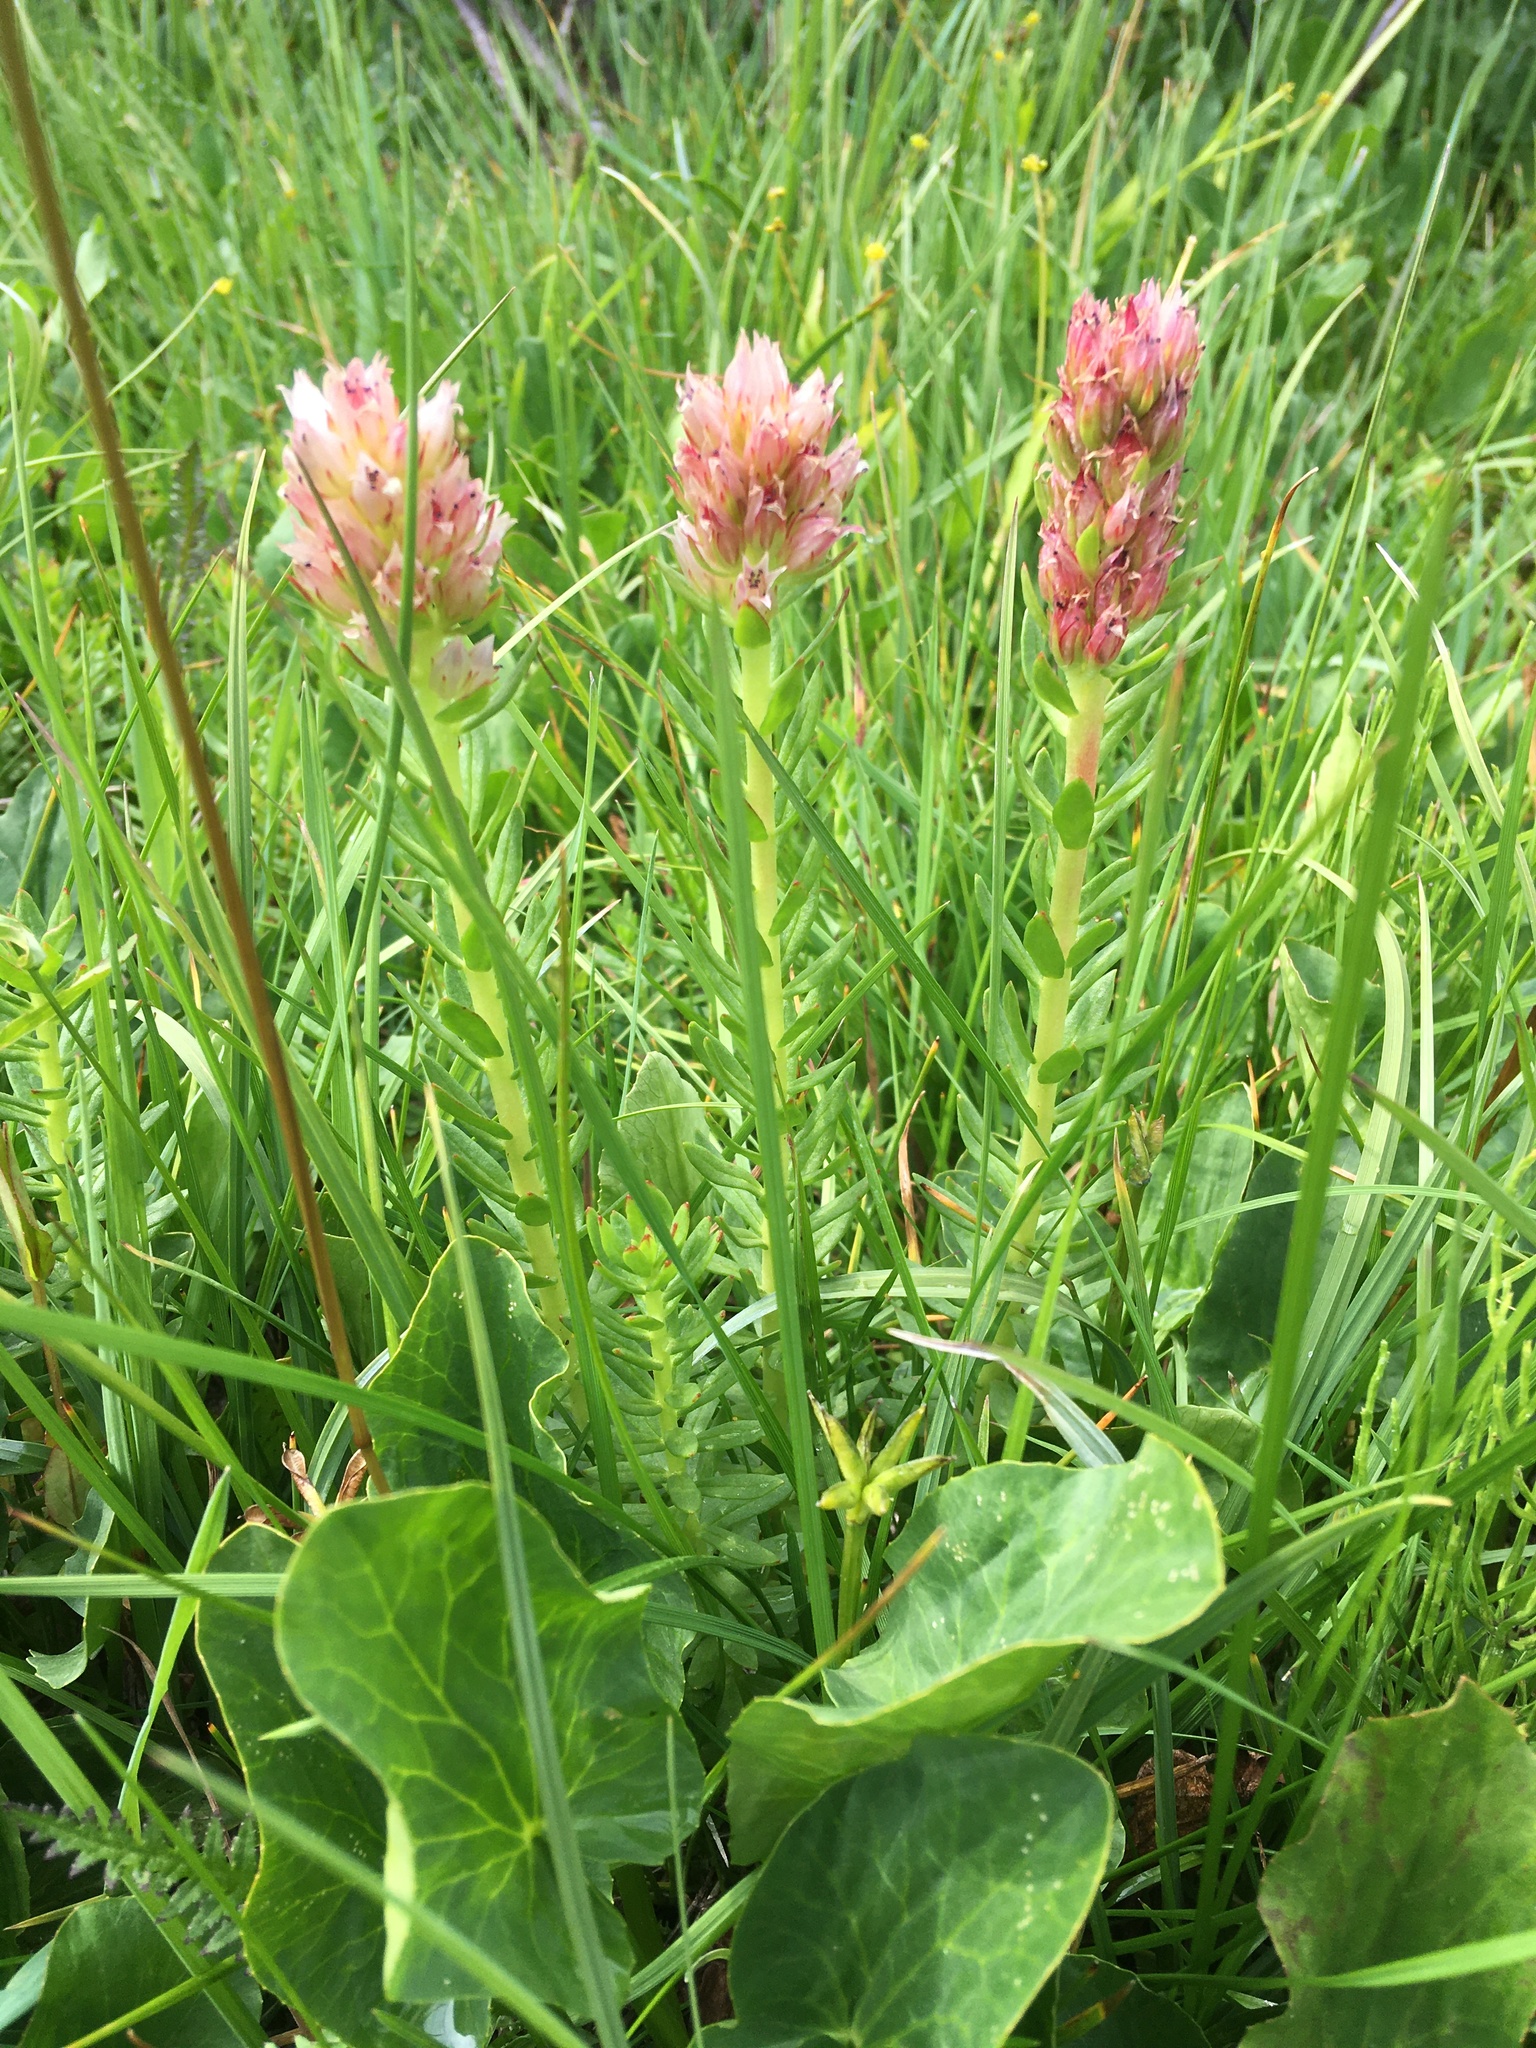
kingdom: Plantae
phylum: Tracheophyta
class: Magnoliopsida
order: Saxifragales
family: Crassulaceae
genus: Rhodiola
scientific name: Rhodiola rhodantha
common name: Red orpine
